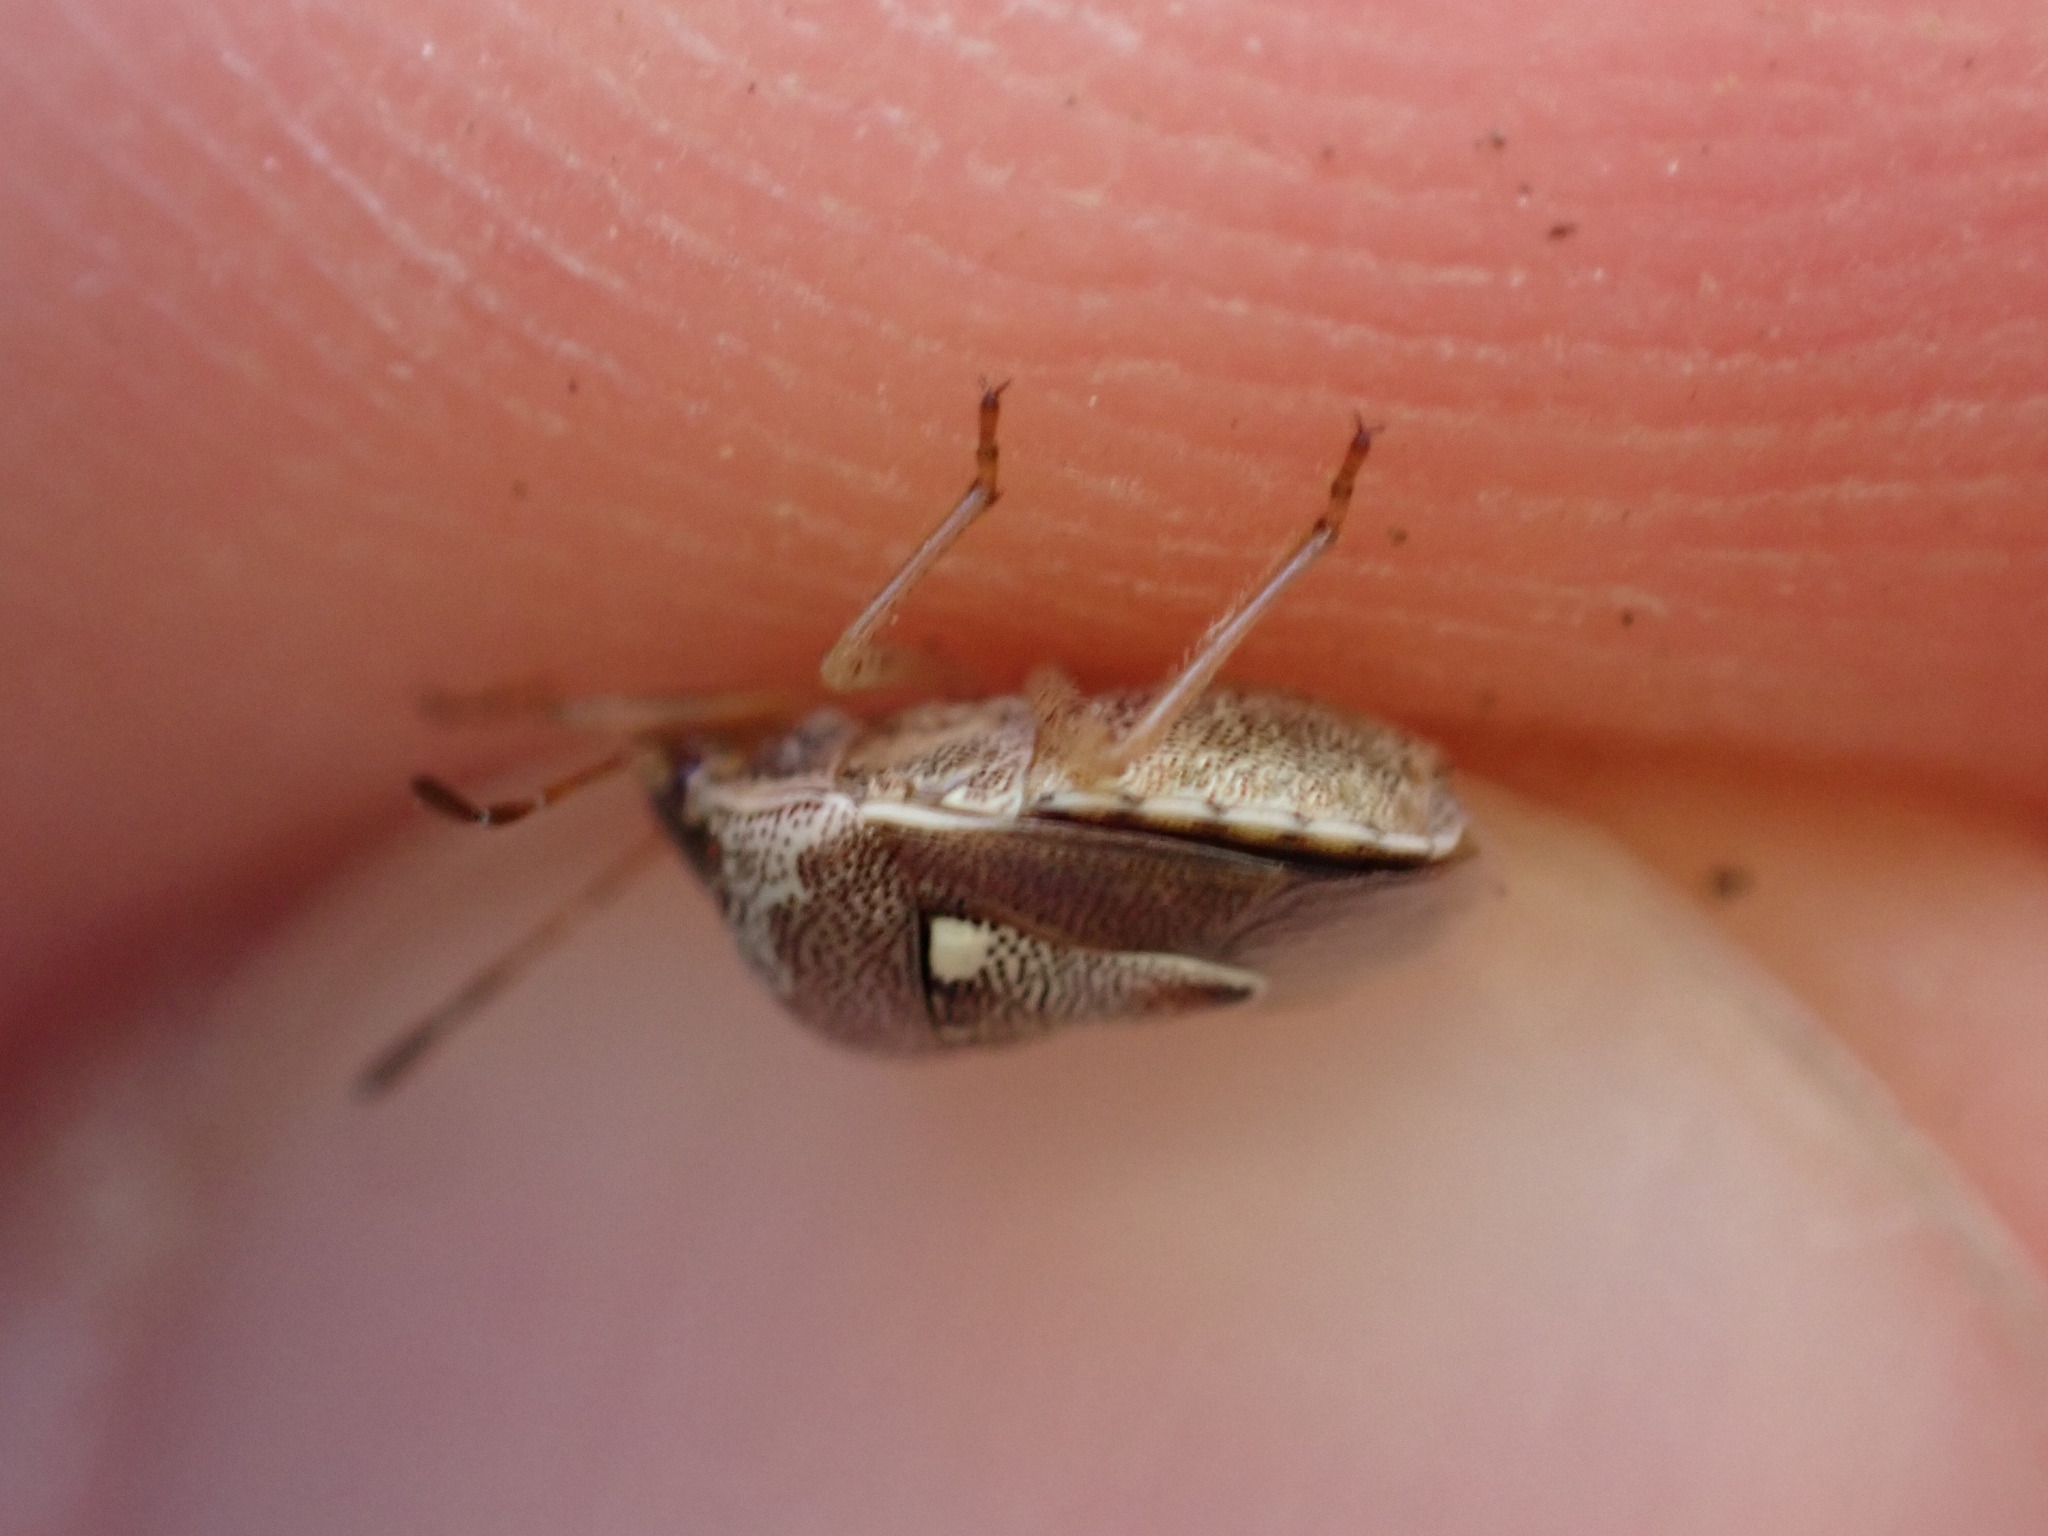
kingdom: Animalia
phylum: Arthropoda
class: Insecta
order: Hemiptera
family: Pentatomidae
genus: Stagonomus
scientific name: Stagonomus bipunctatus
